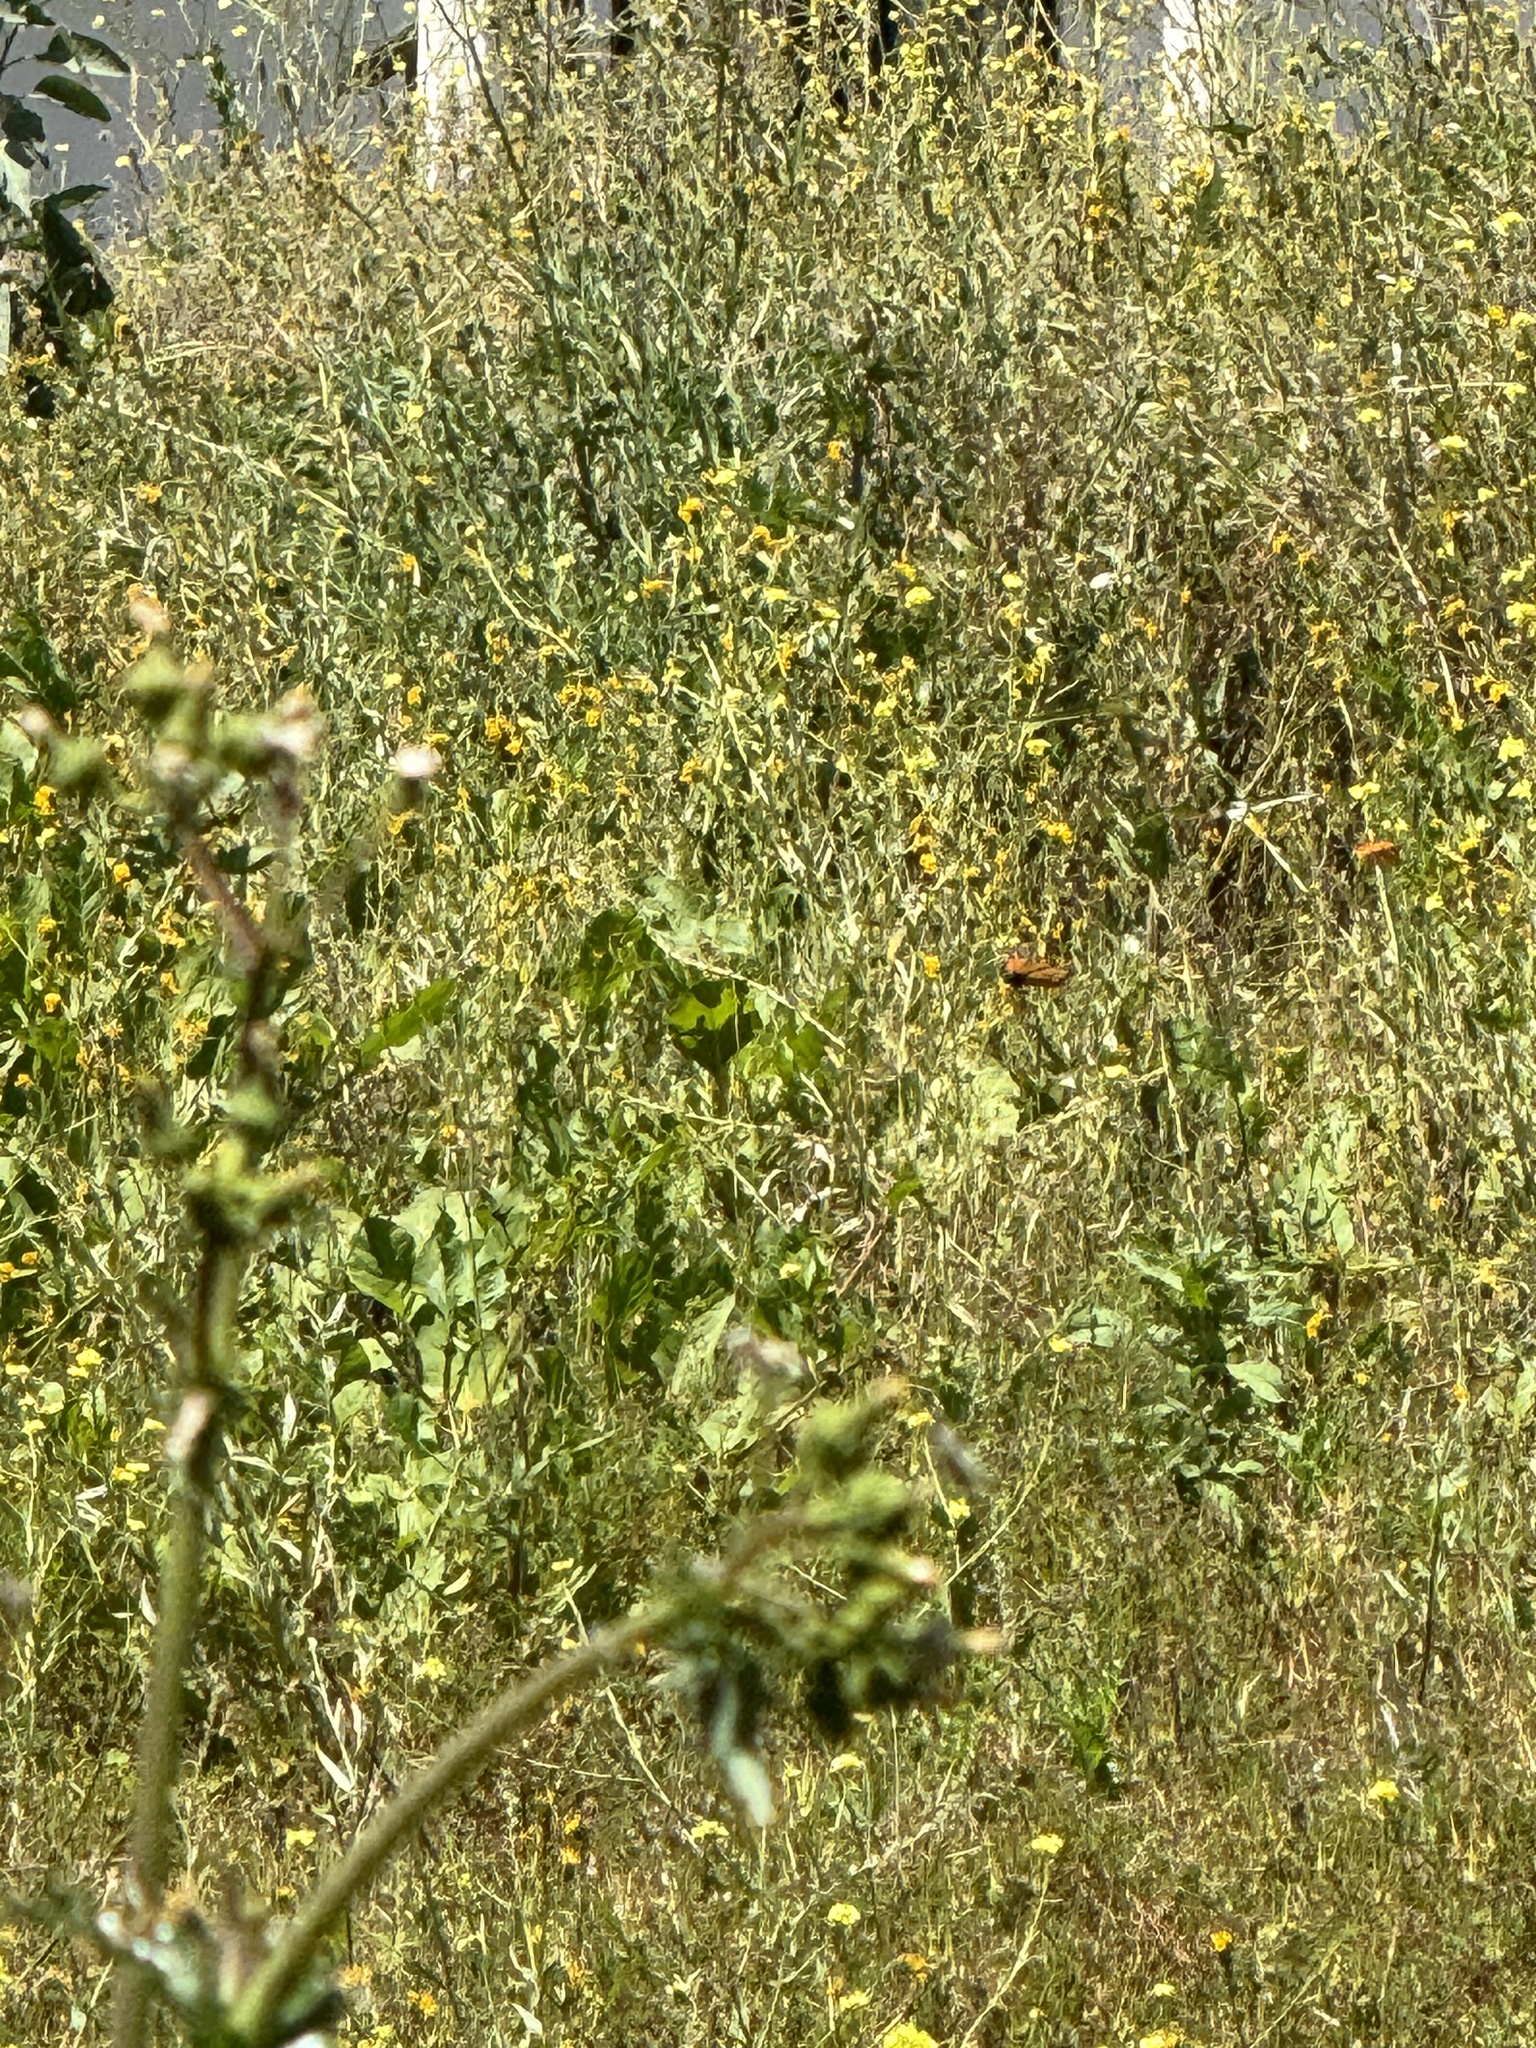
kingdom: Animalia
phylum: Arthropoda
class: Insecta
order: Lepidoptera
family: Nymphalidae
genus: Danaus
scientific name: Danaus plexippus
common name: Monarch
